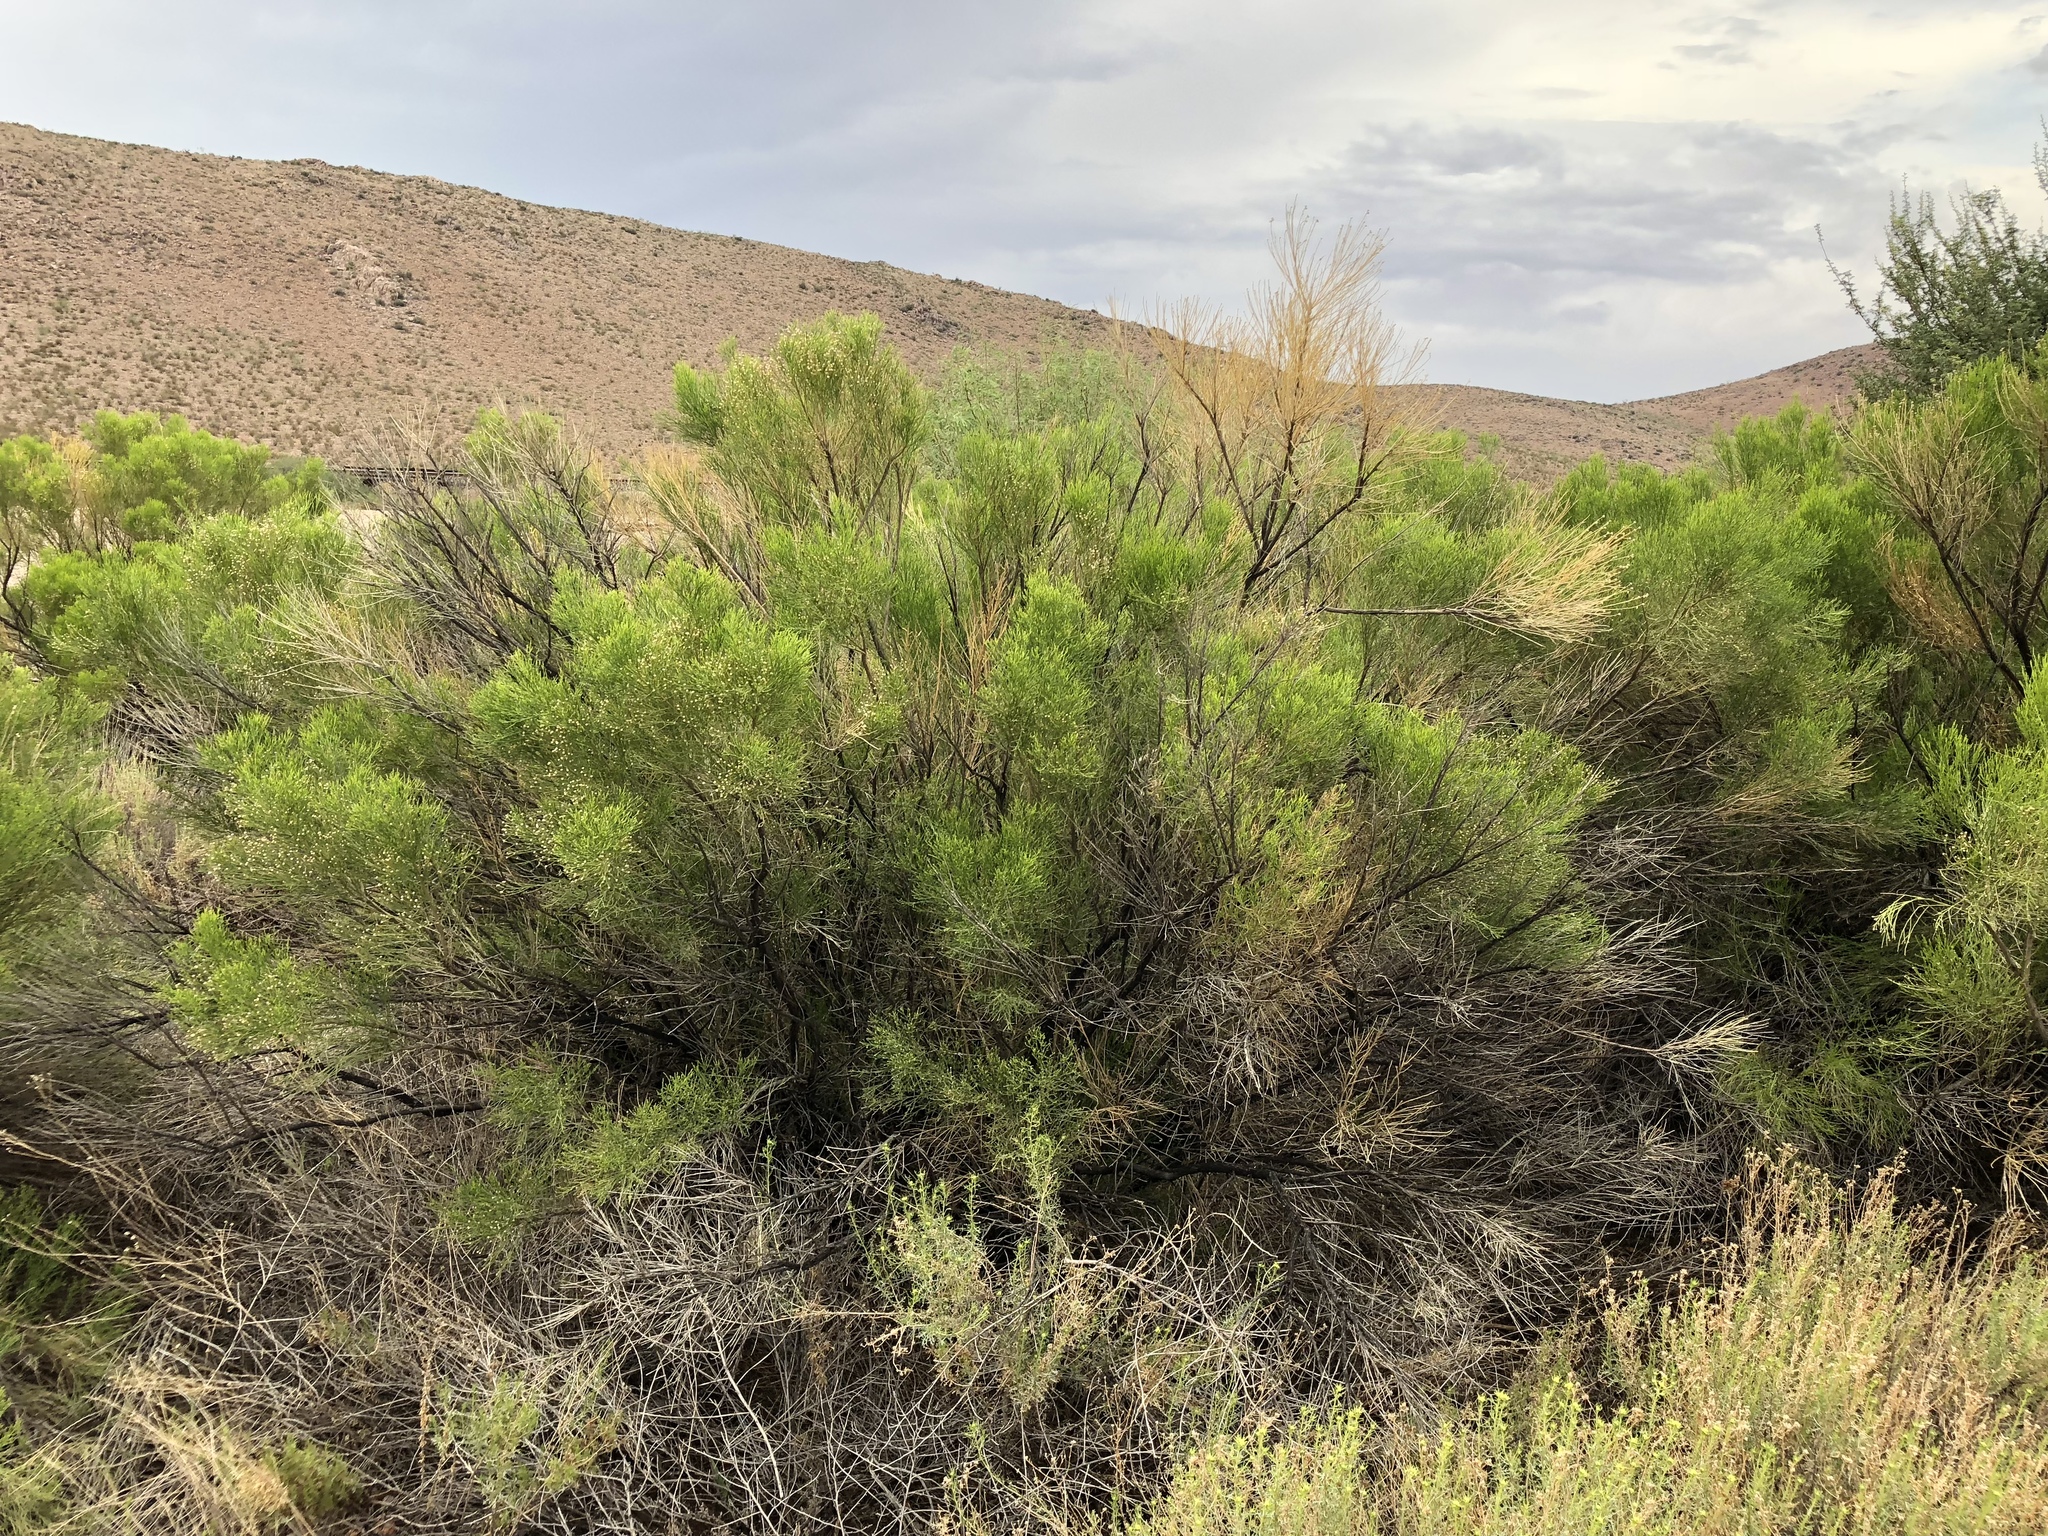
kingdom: Plantae
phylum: Tracheophyta
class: Magnoliopsida
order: Asterales
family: Asteraceae
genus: Baccharis
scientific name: Baccharis sarothroides
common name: Desert-broom
